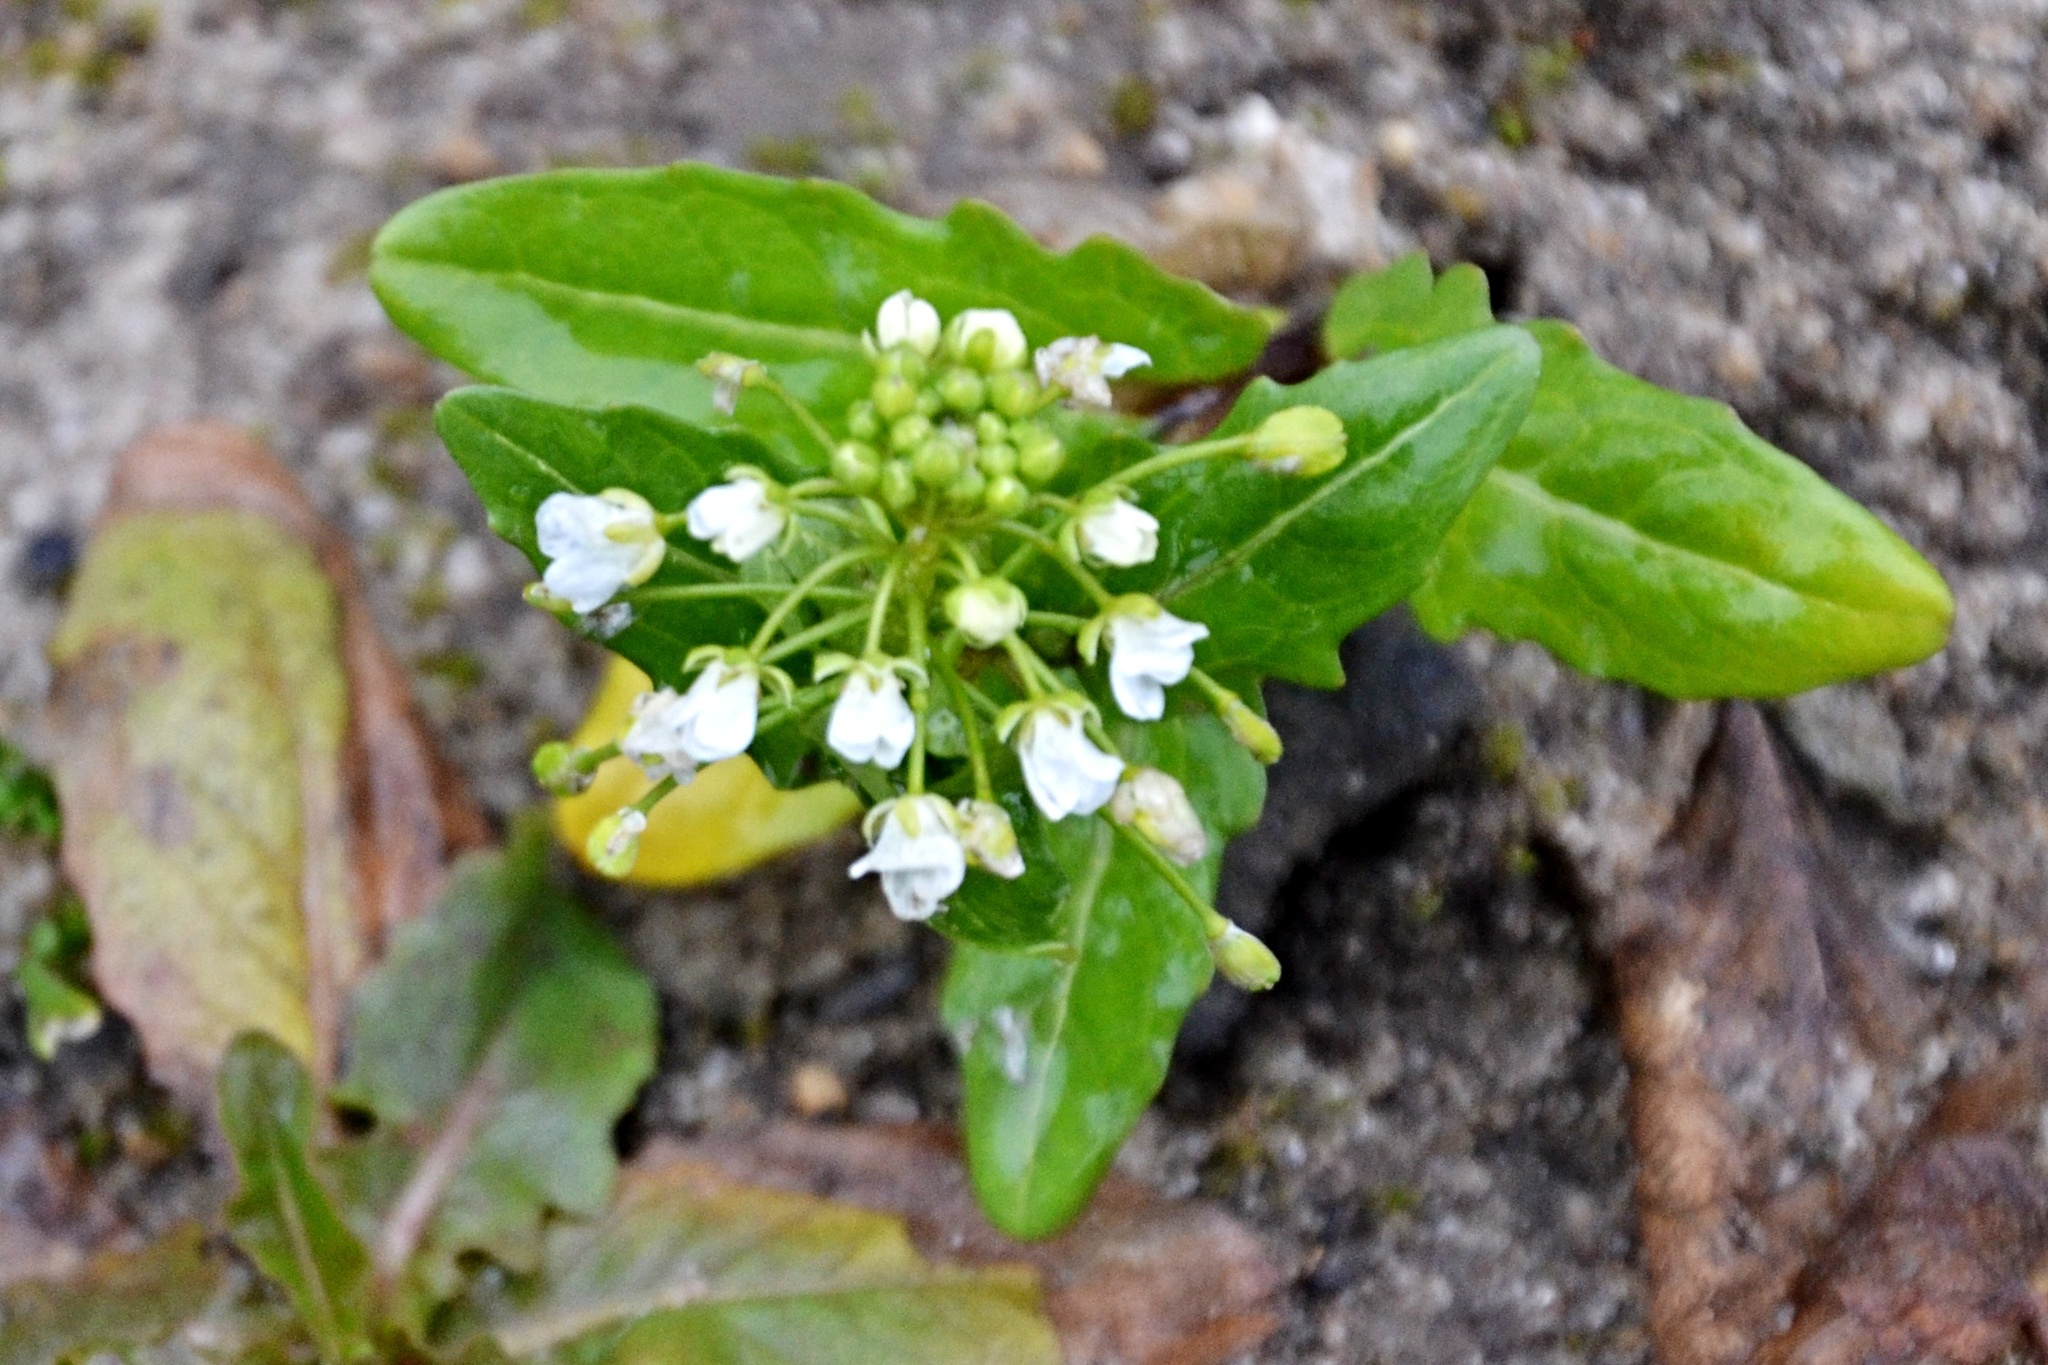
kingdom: Plantae
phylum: Tracheophyta
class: Magnoliopsida
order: Brassicales
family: Brassicaceae
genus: Thlaspi
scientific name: Thlaspi arvense
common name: Field pennycress
